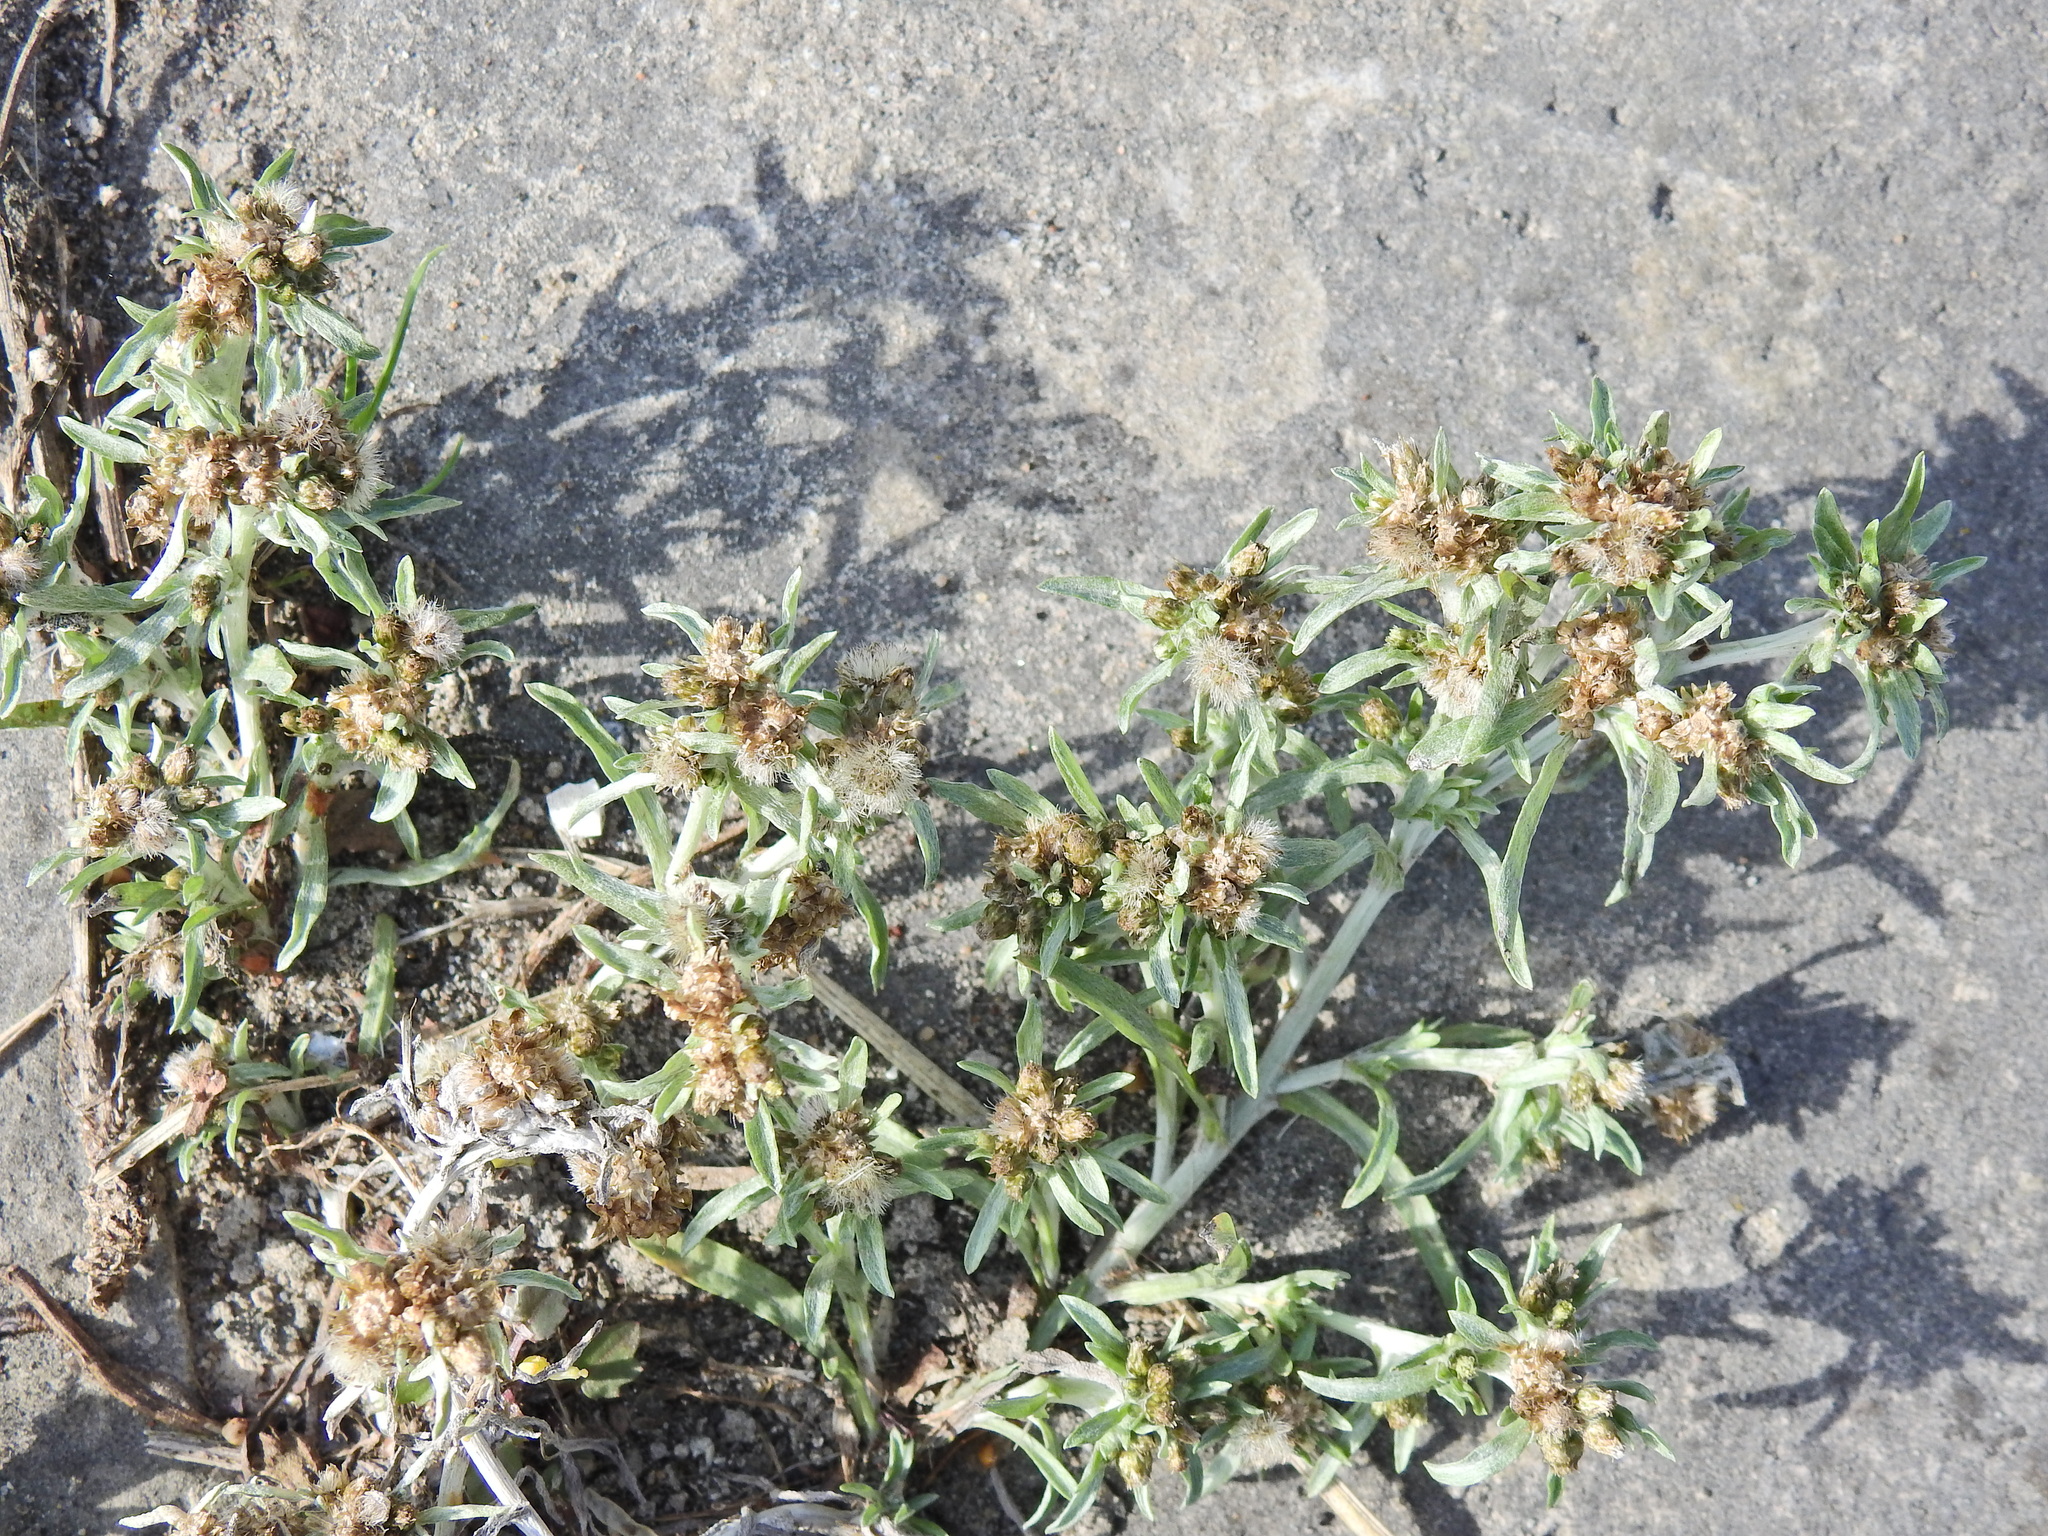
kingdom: Plantae
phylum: Tracheophyta
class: Magnoliopsida
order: Asterales
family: Asteraceae
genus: Gnaphalium
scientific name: Gnaphalium uliginosum
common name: Marsh cudweed
